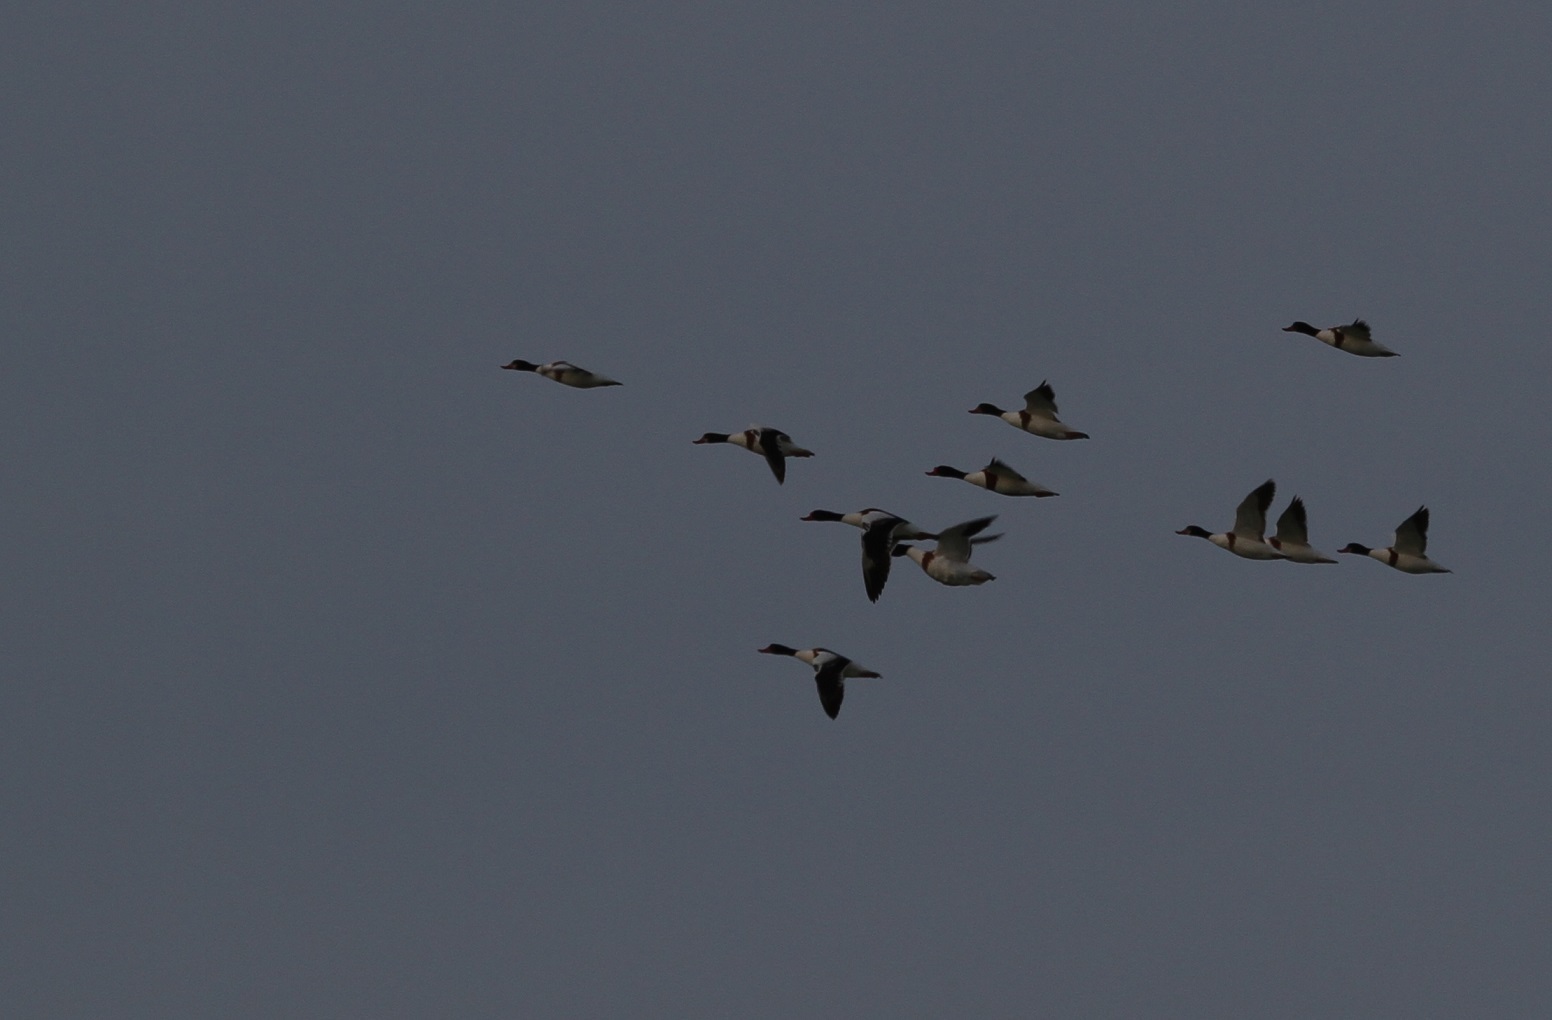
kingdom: Animalia
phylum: Chordata
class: Aves
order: Anseriformes
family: Anatidae
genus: Tadorna
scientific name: Tadorna tadorna
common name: Common shelduck
